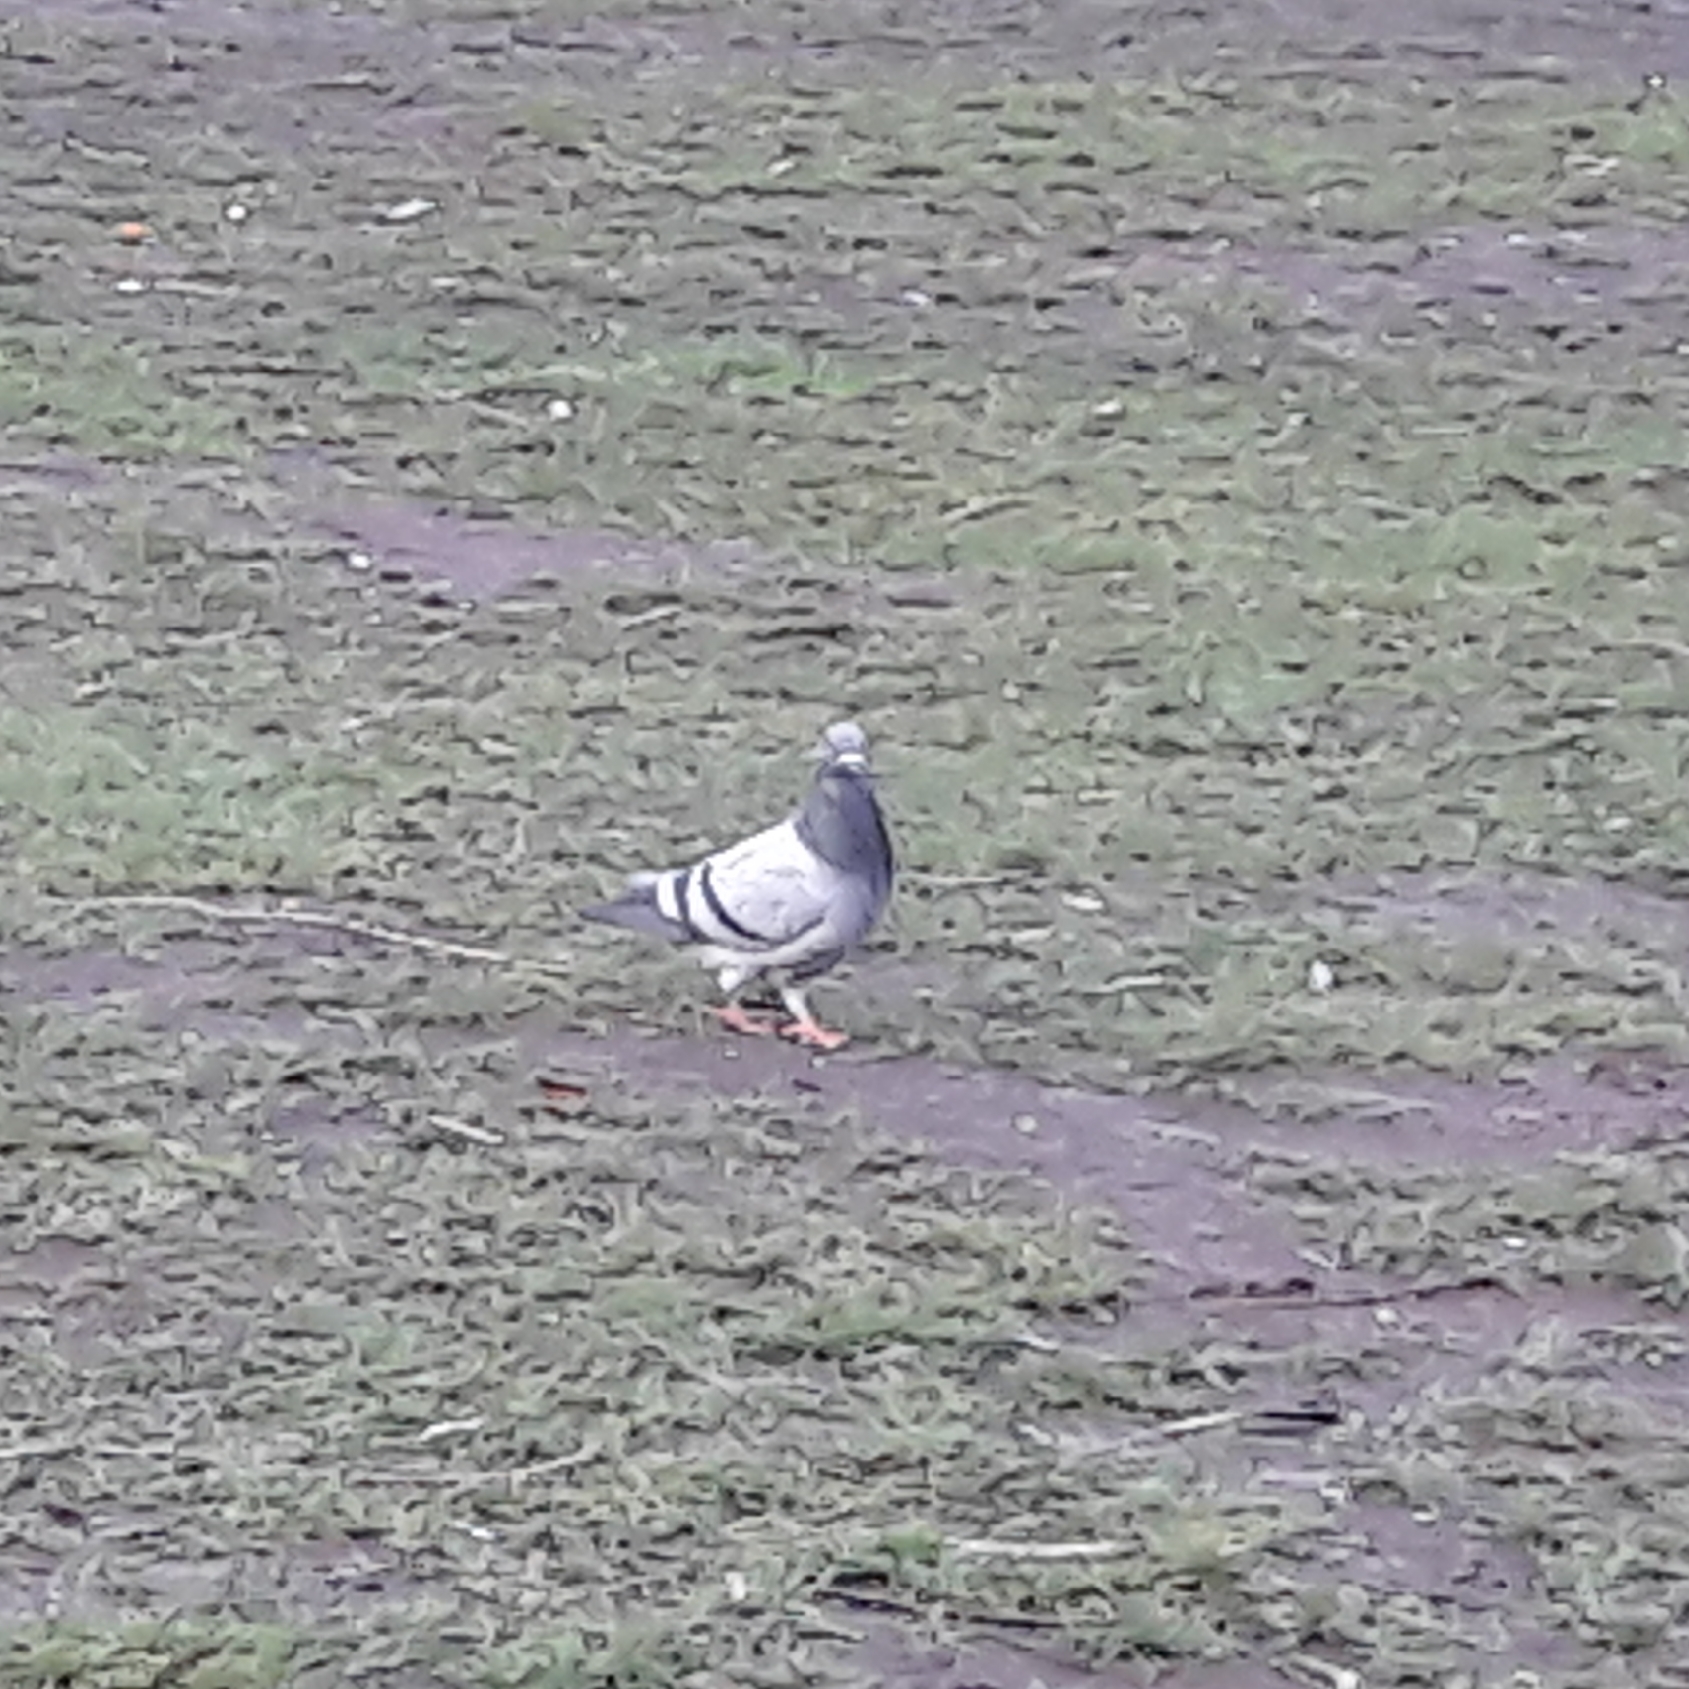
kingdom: Animalia
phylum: Chordata
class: Aves
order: Columbiformes
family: Columbidae
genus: Columba
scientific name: Columba livia
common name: Rock pigeon
